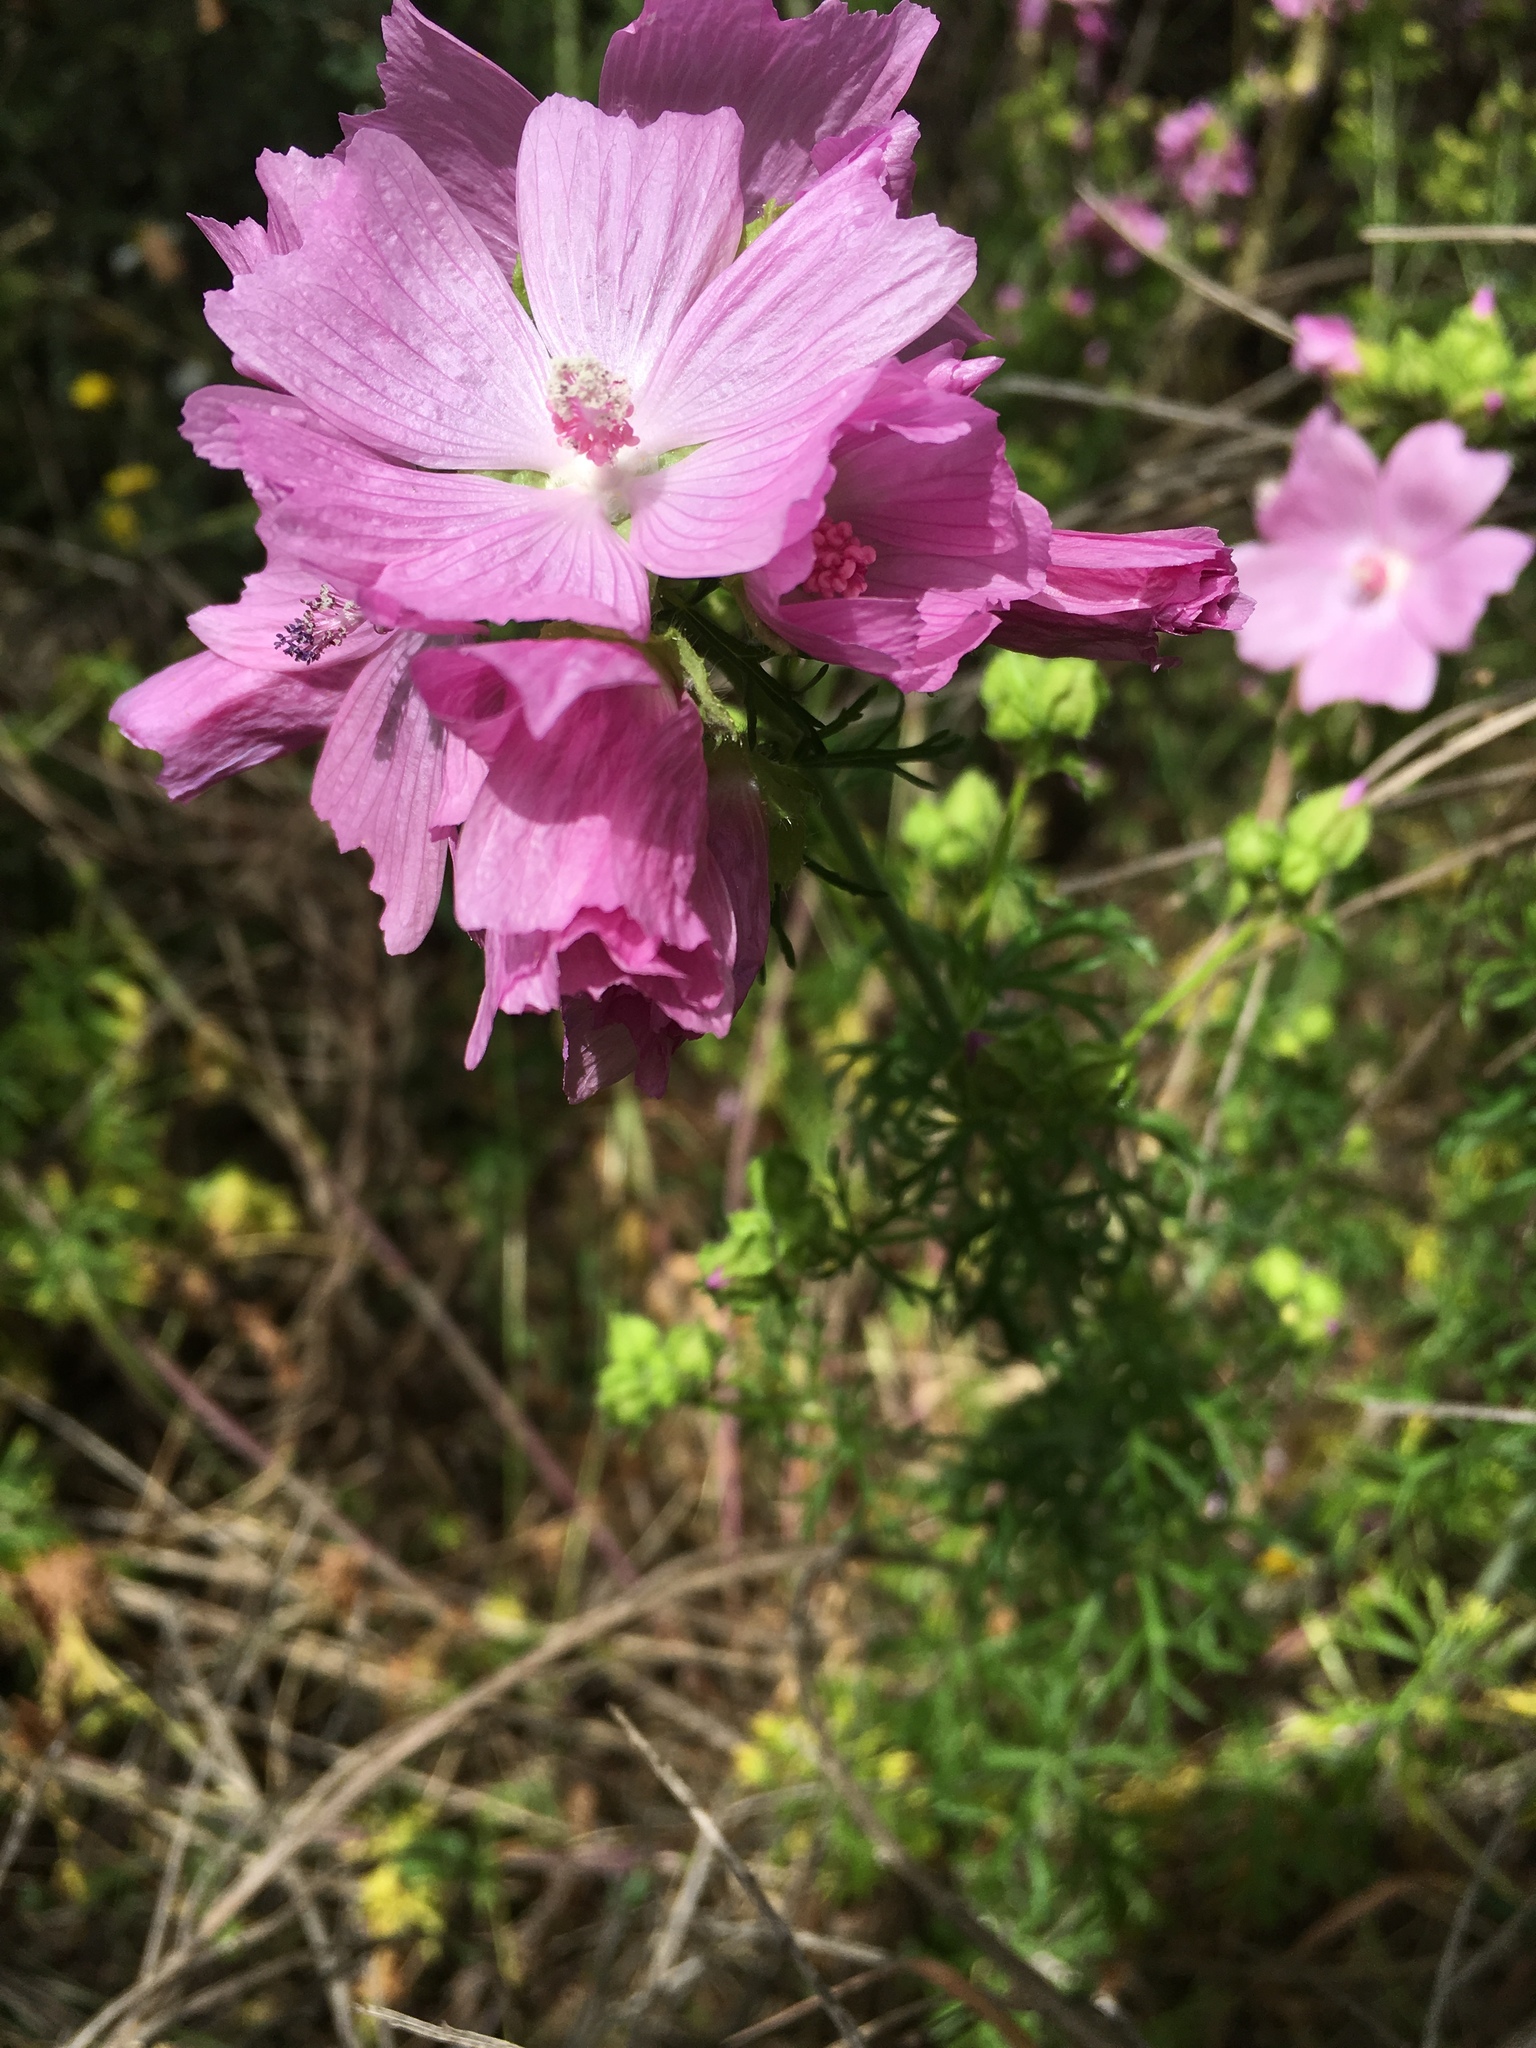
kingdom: Plantae
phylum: Tracheophyta
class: Magnoliopsida
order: Malvales
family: Malvaceae
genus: Malva
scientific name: Malva moschata
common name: Musk mallow
